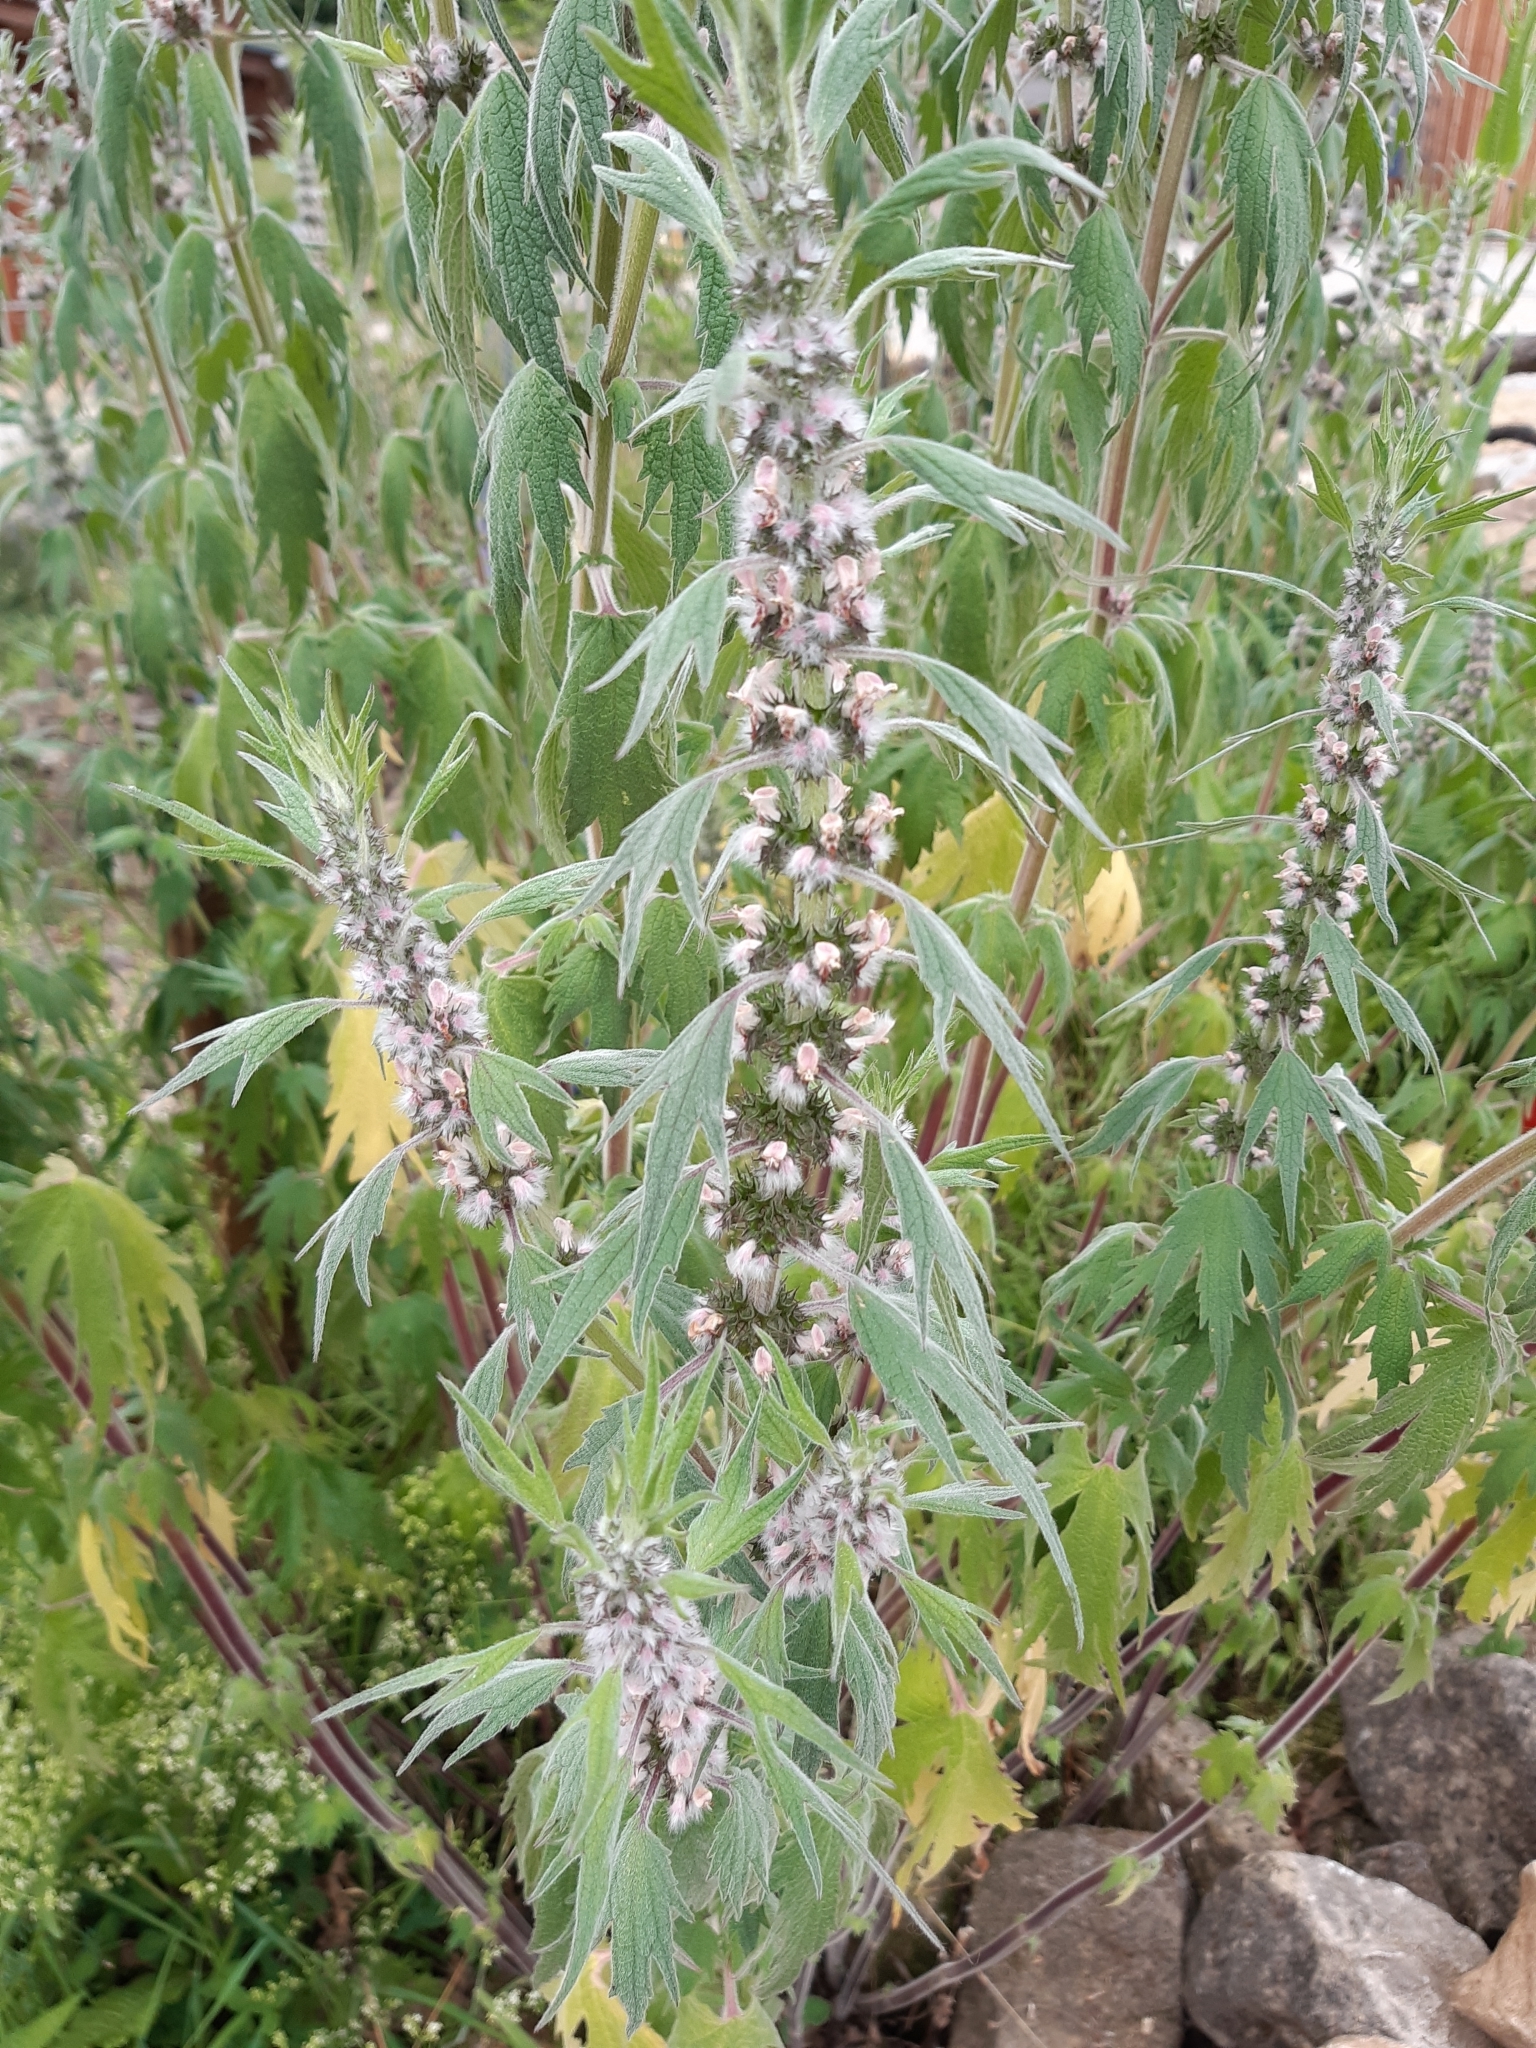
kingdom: Plantae
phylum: Tracheophyta
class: Magnoliopsida
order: Lamiales
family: Lamiaceae
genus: Leonurus
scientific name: Leonurus quinquelobatus
